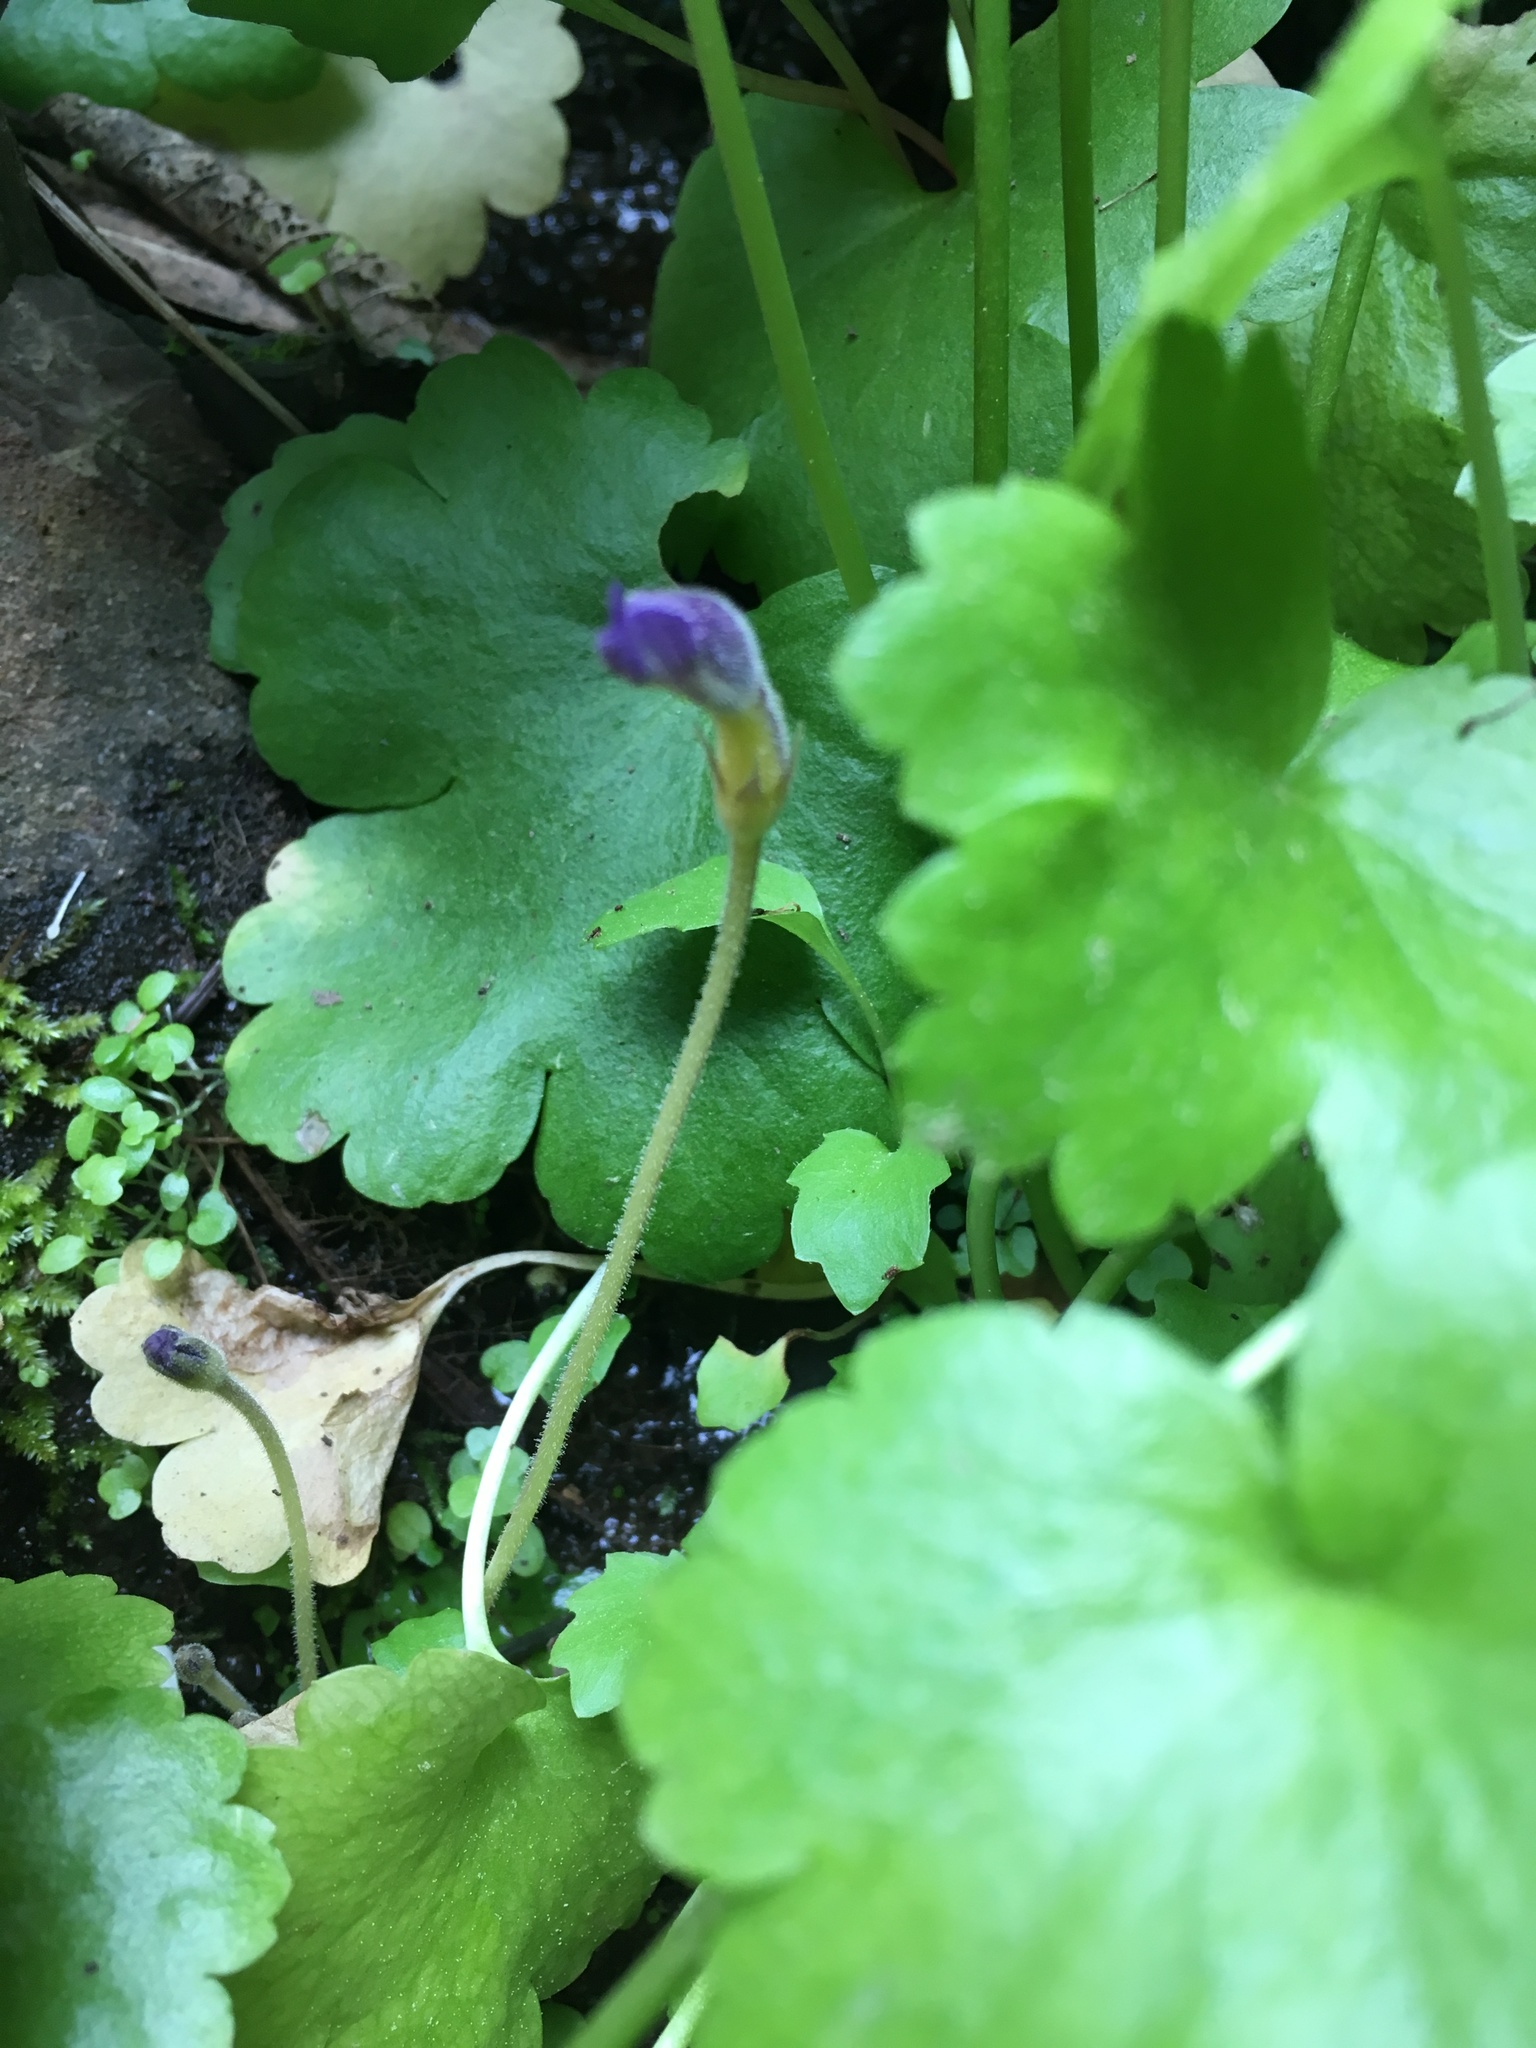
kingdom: Plantae
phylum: Tracheophyta
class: Magnoliopsida
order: Lamiales
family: Orobanchaceae
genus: Aphyllon
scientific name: Aphyllon uniflorum
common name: One-flowered broomrape
